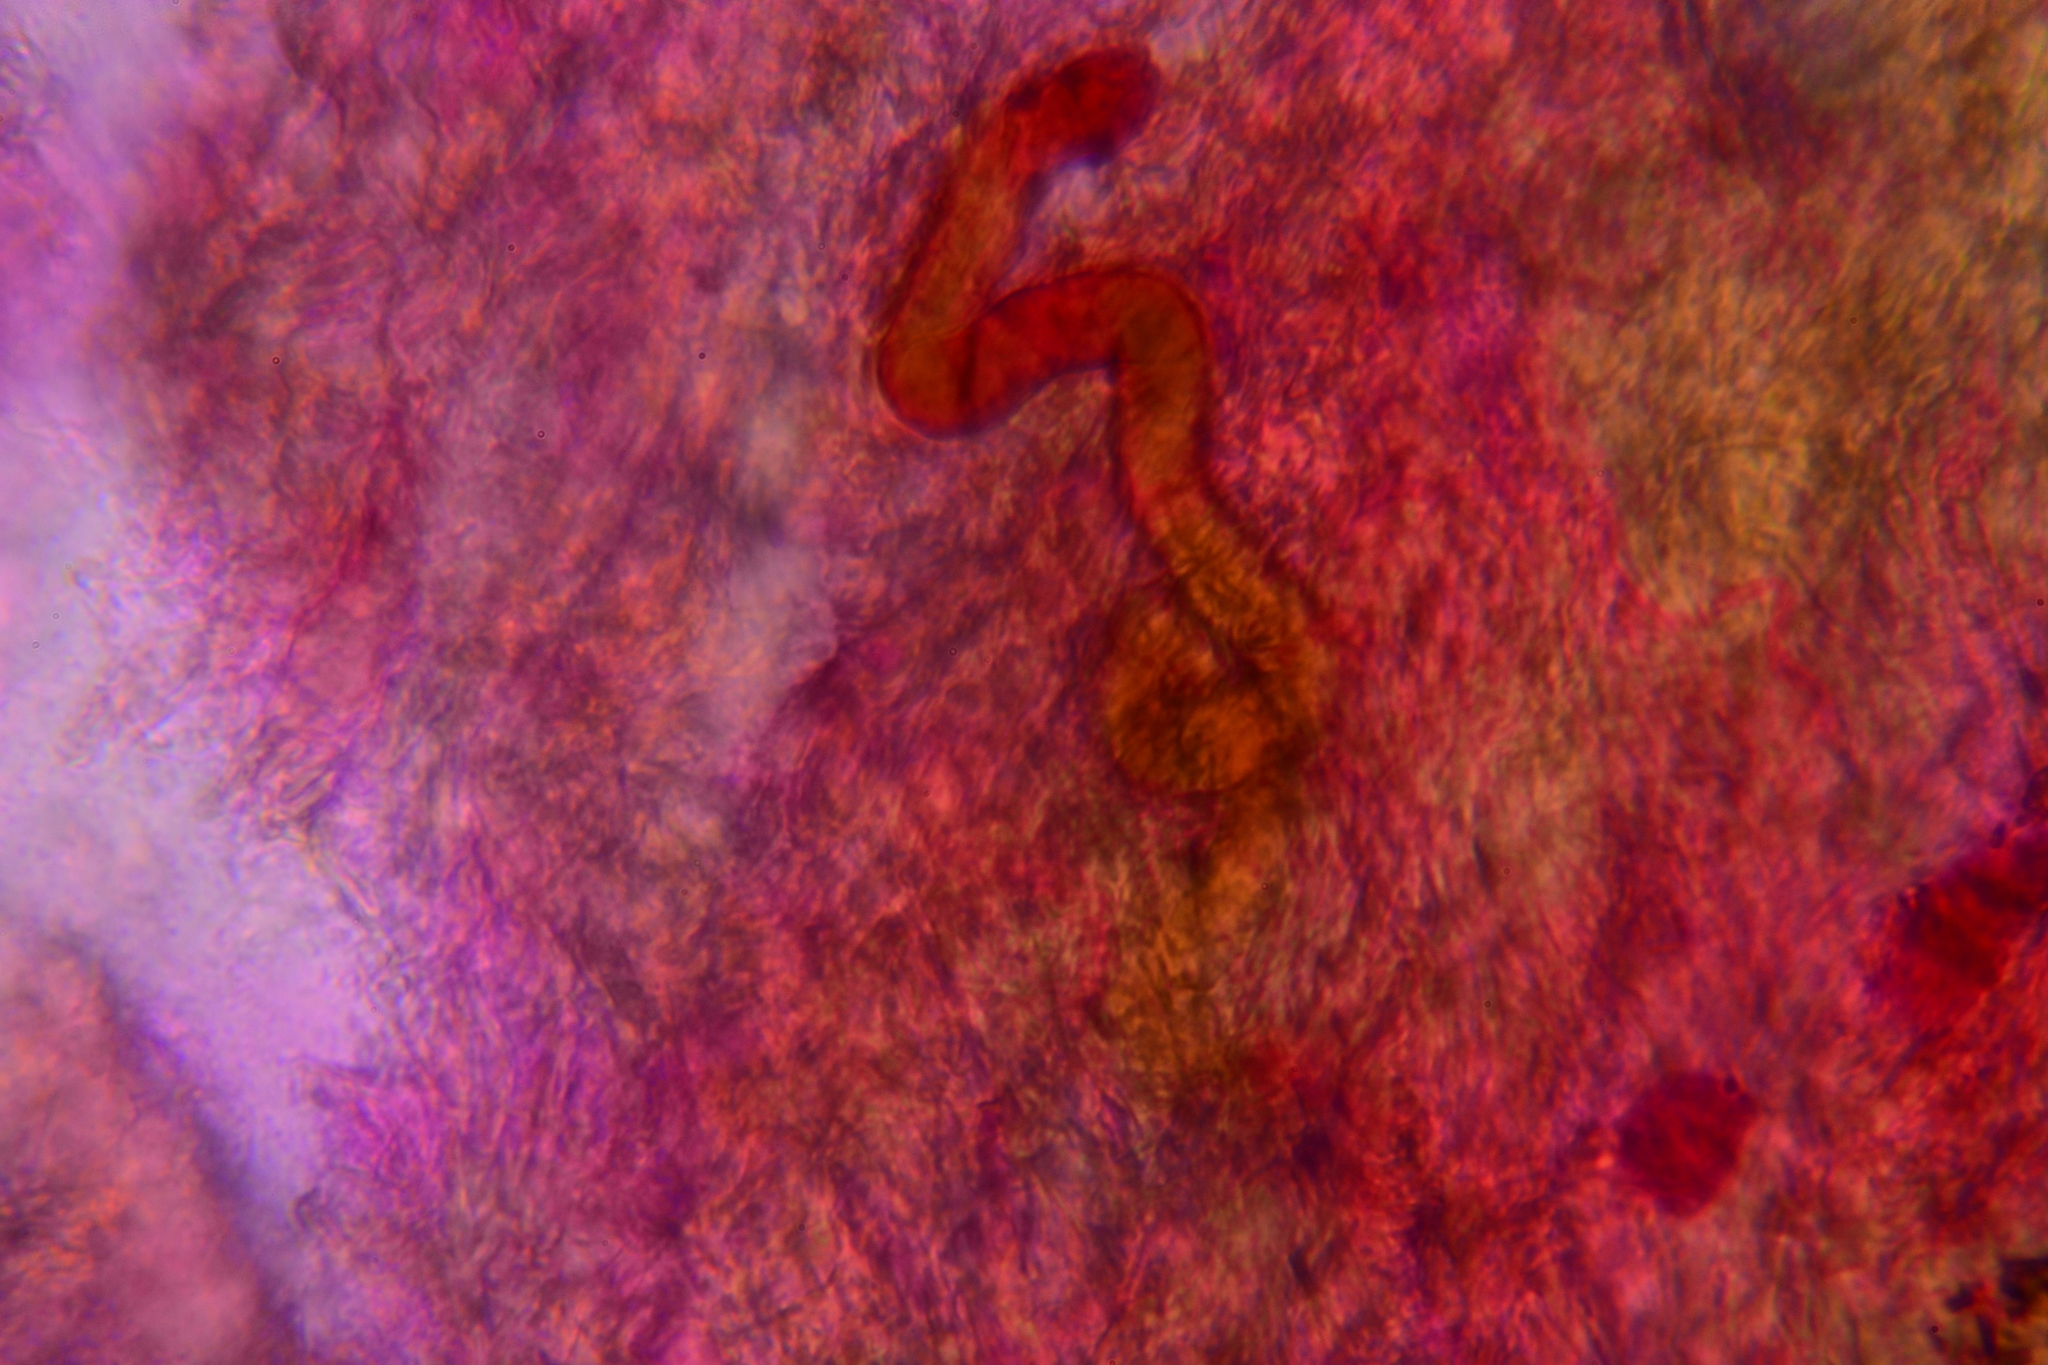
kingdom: Fungi
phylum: Basidiomycota
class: Agaricomycetes
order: Agaricales
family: Mycenaceae
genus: Hydropus
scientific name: Hydropus praedecurrens
